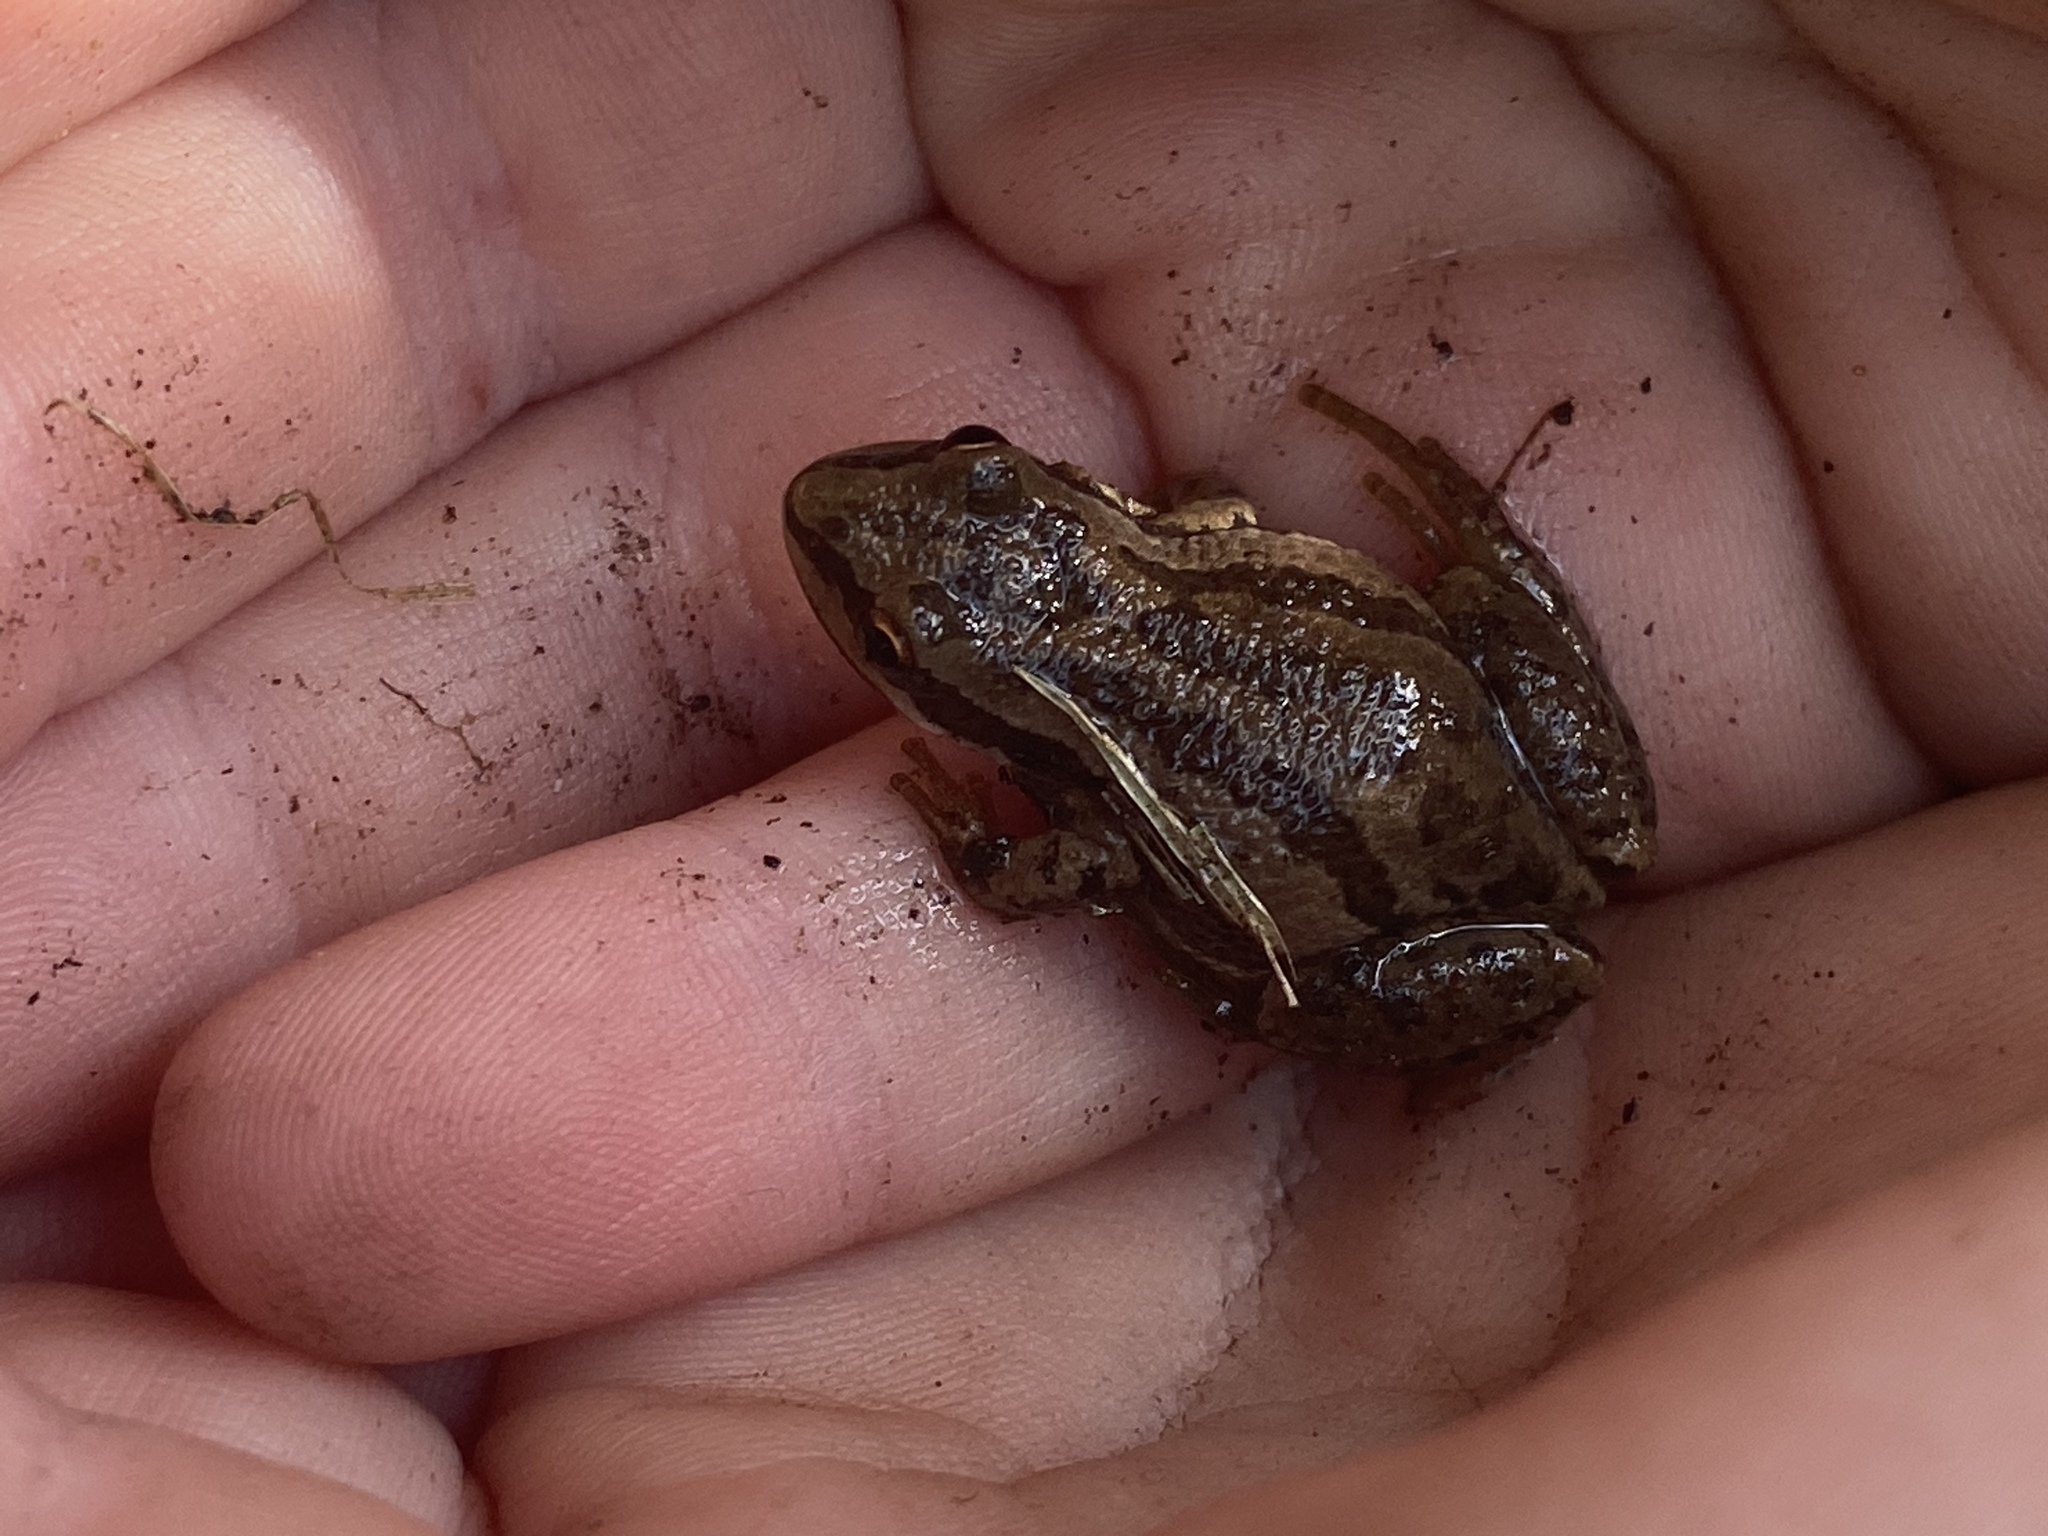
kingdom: Animalia
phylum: Chordata
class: Amphibia
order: Anura
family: Hylidae
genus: Pseudacris
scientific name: Pseudacris maculata
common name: Boreal chorus frog
